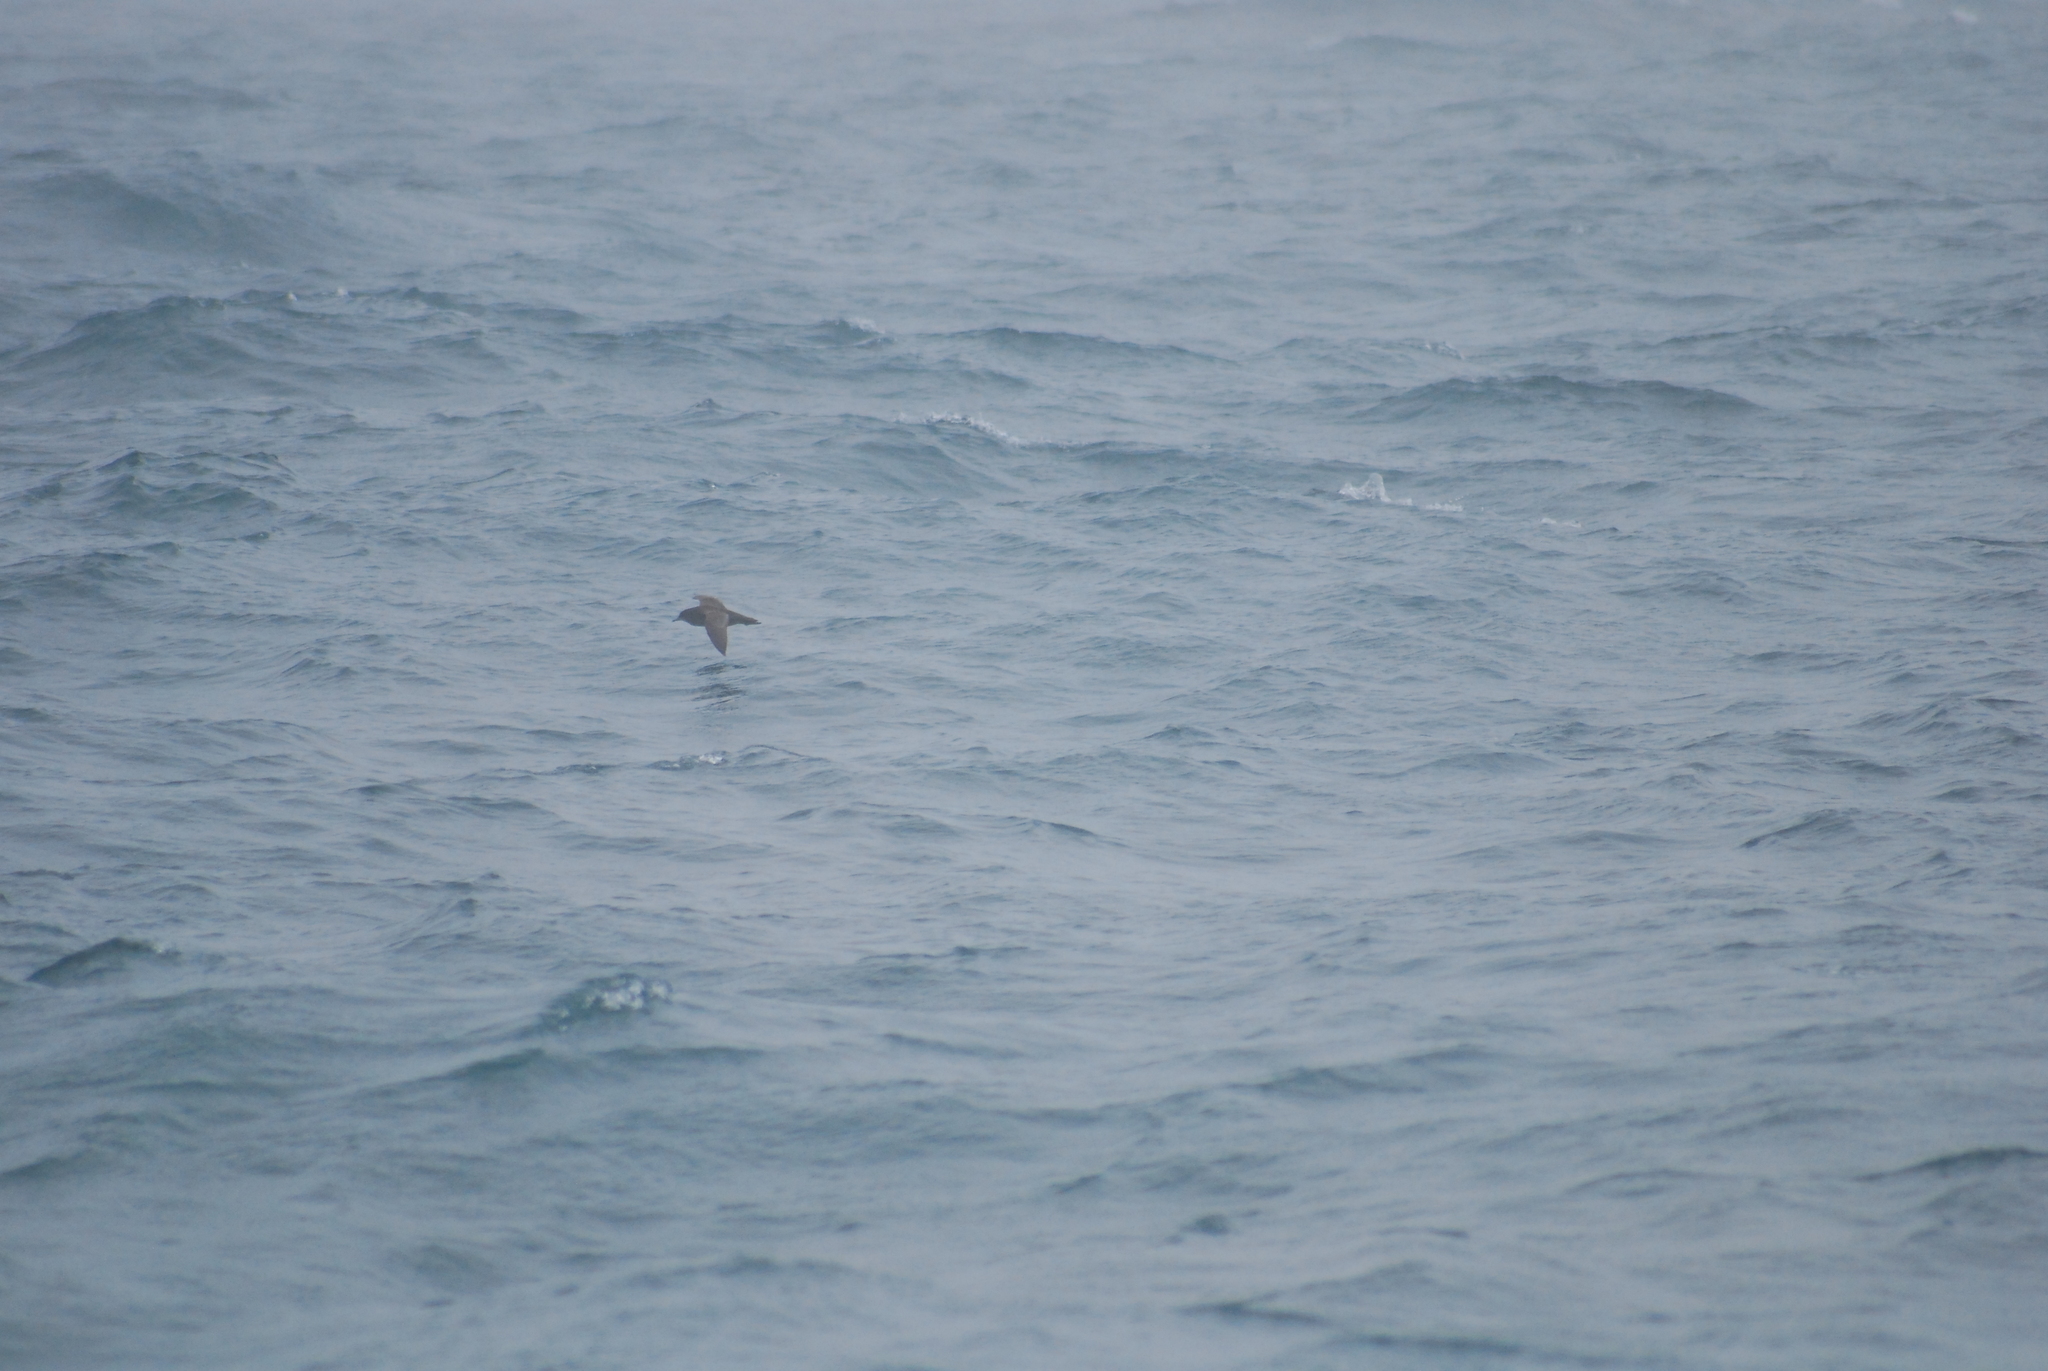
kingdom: Animalia
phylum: Chordata
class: Aves
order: Procellariiformes
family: Procellariidae
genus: Puffinus
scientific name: Puffinus tenuirostris
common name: Short-tailed shearwater
